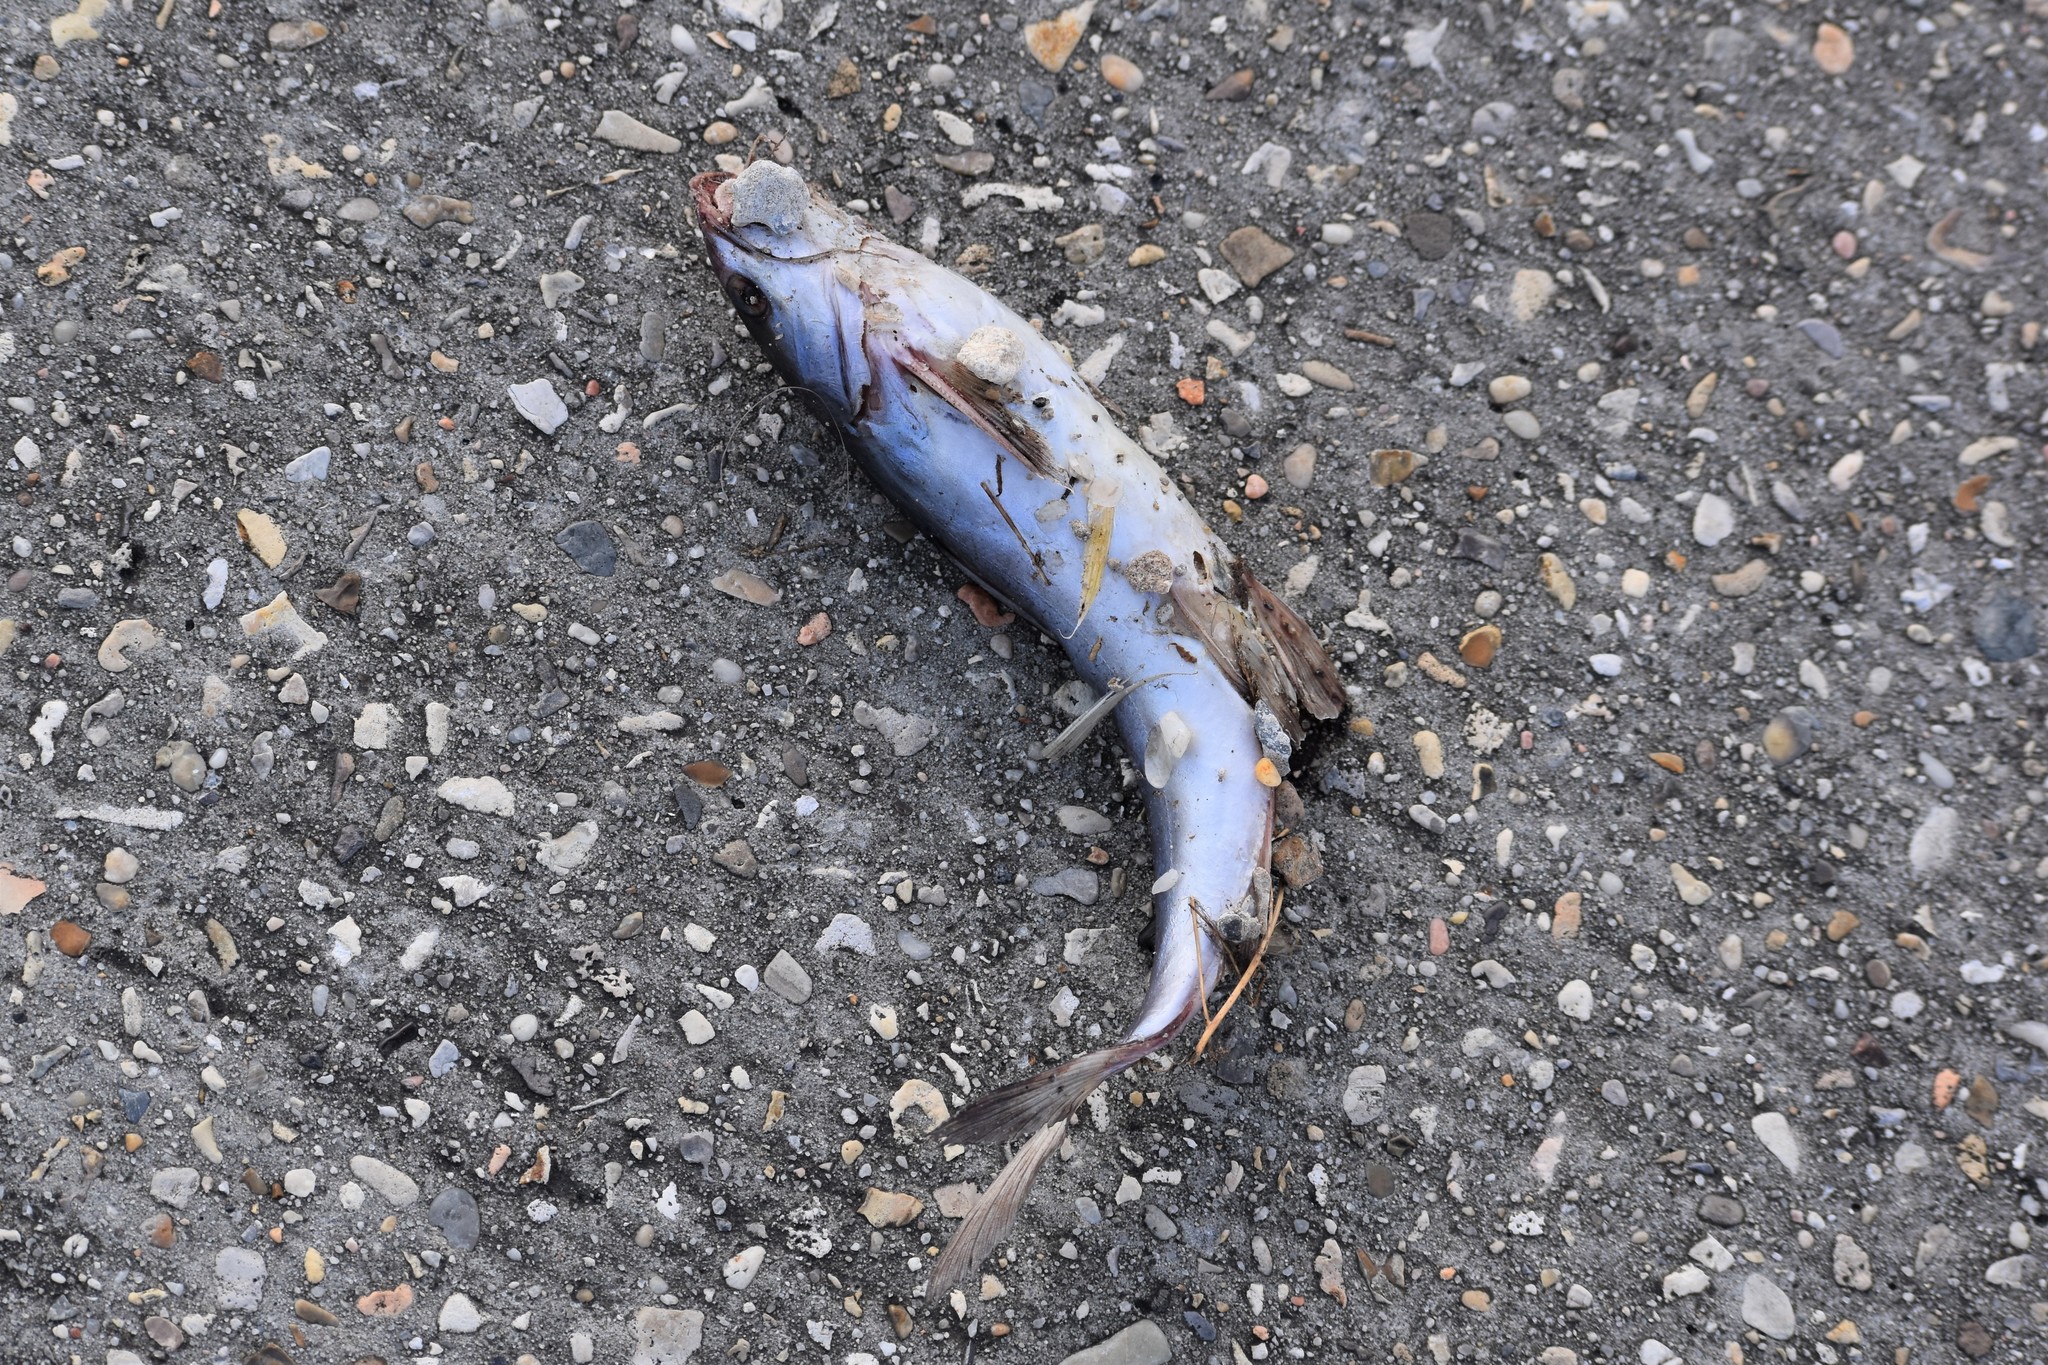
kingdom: Animalia
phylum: Chordata
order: Siluriformes
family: Ariidae
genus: Ariopsis
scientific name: Ariopsis felis
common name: Hardhead catfish
